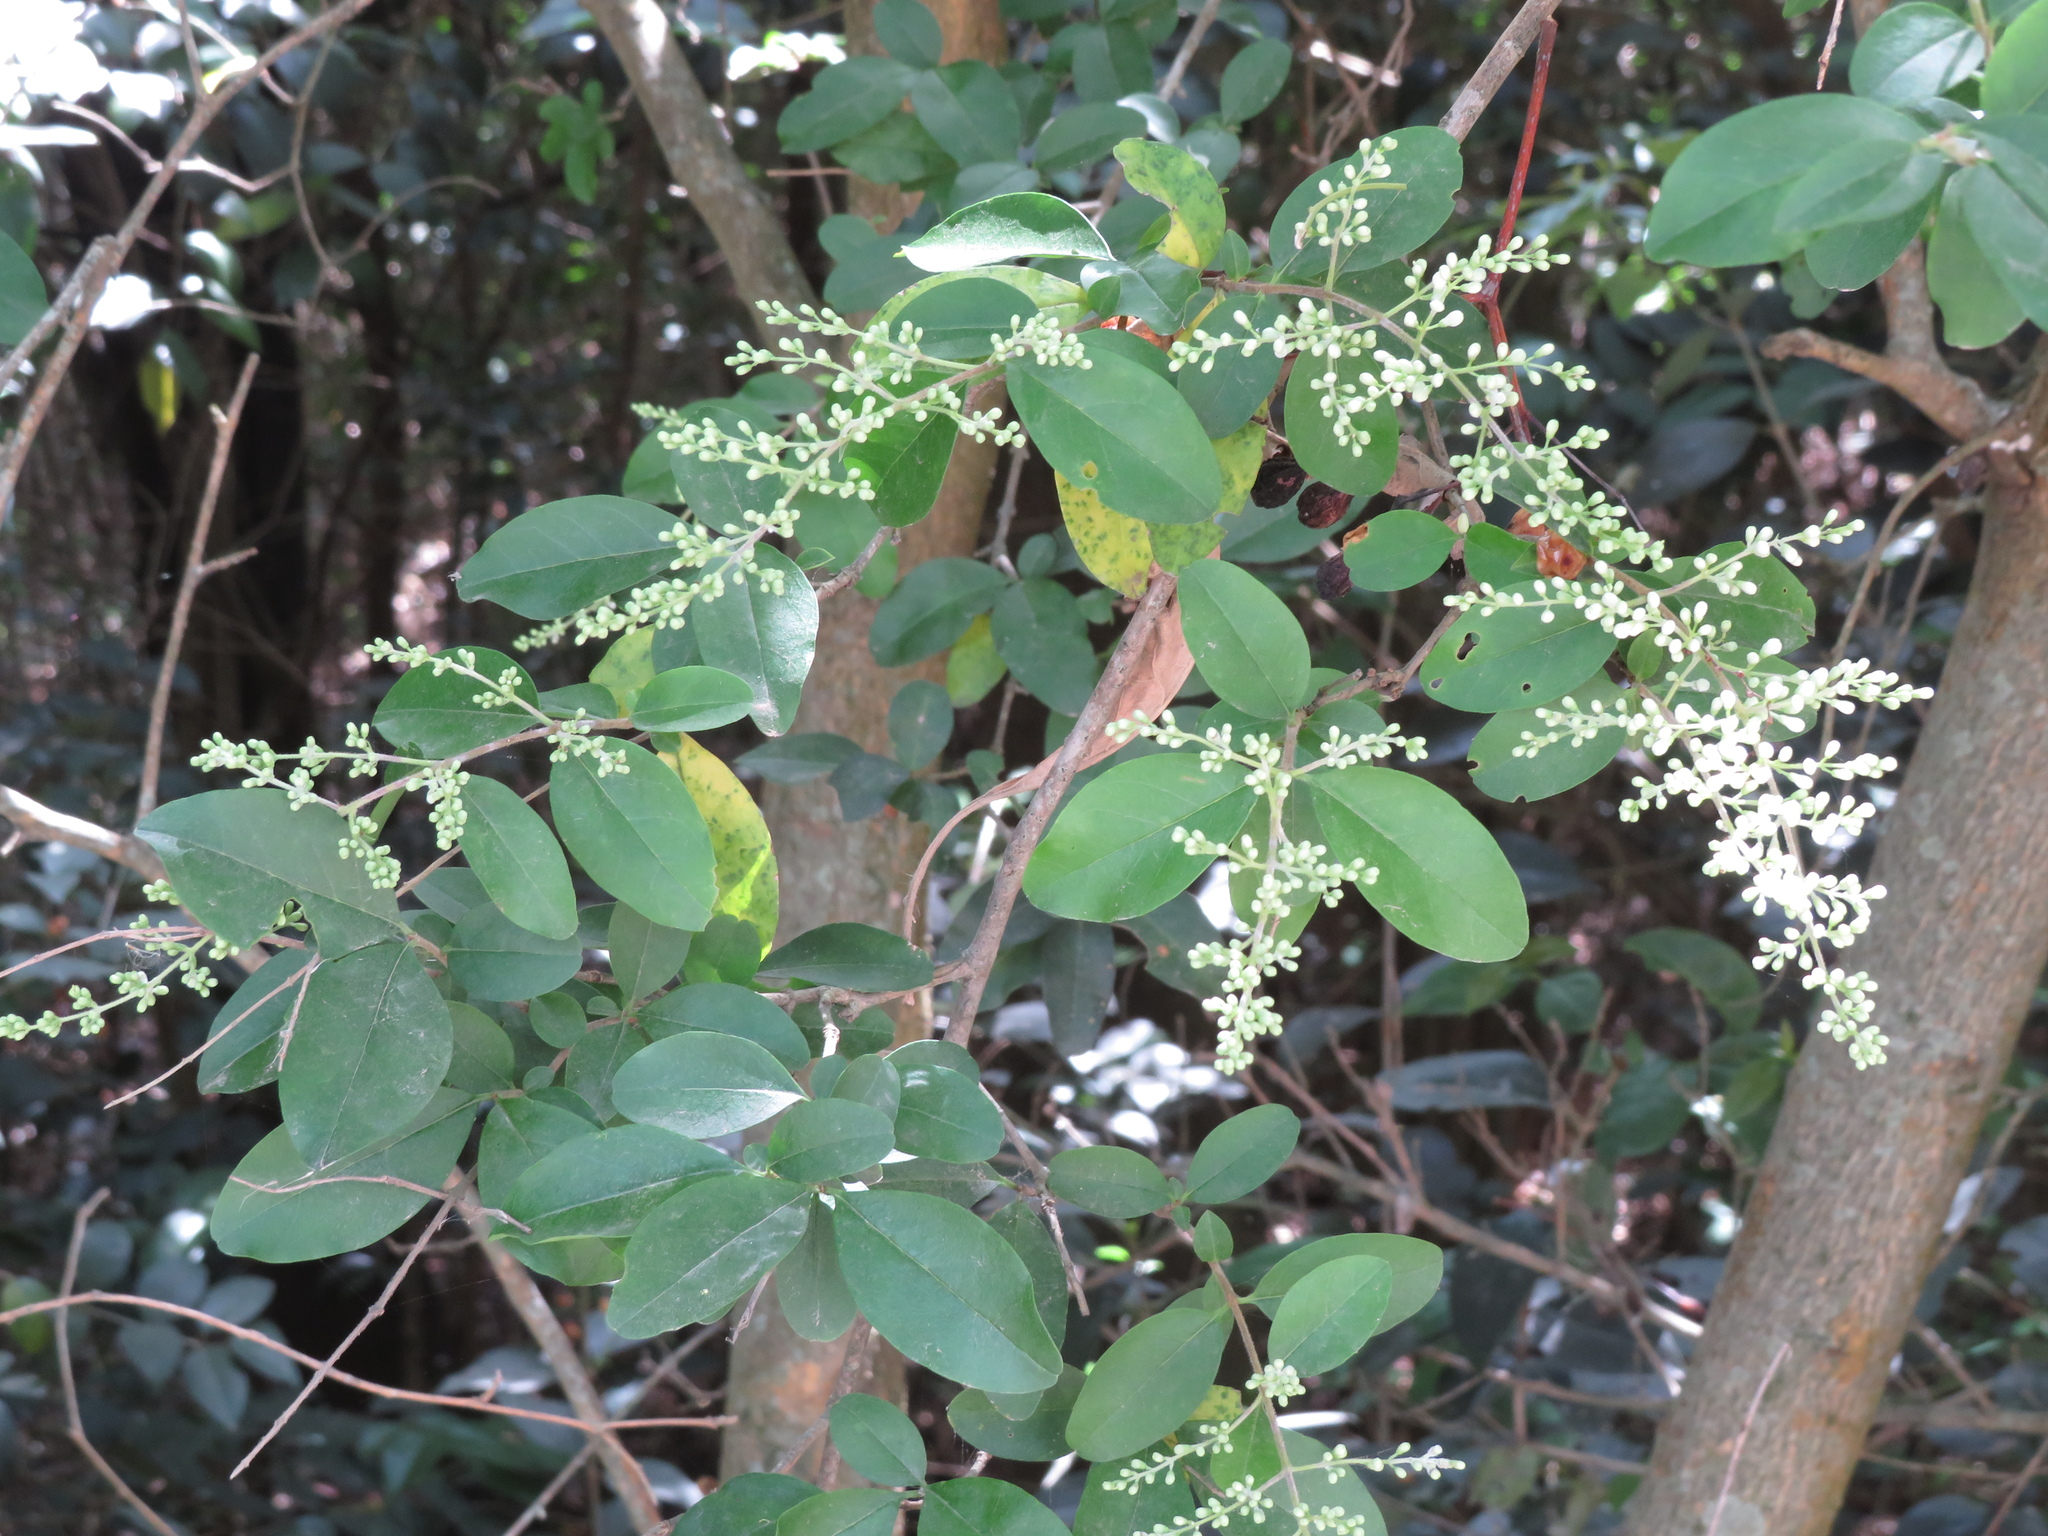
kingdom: Plantae
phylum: Tracheophyta
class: Magnoliopsida
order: Lamiales
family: Oleaceae
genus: Ligustrum
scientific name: Ligustrum sinense
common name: Chinese privet
